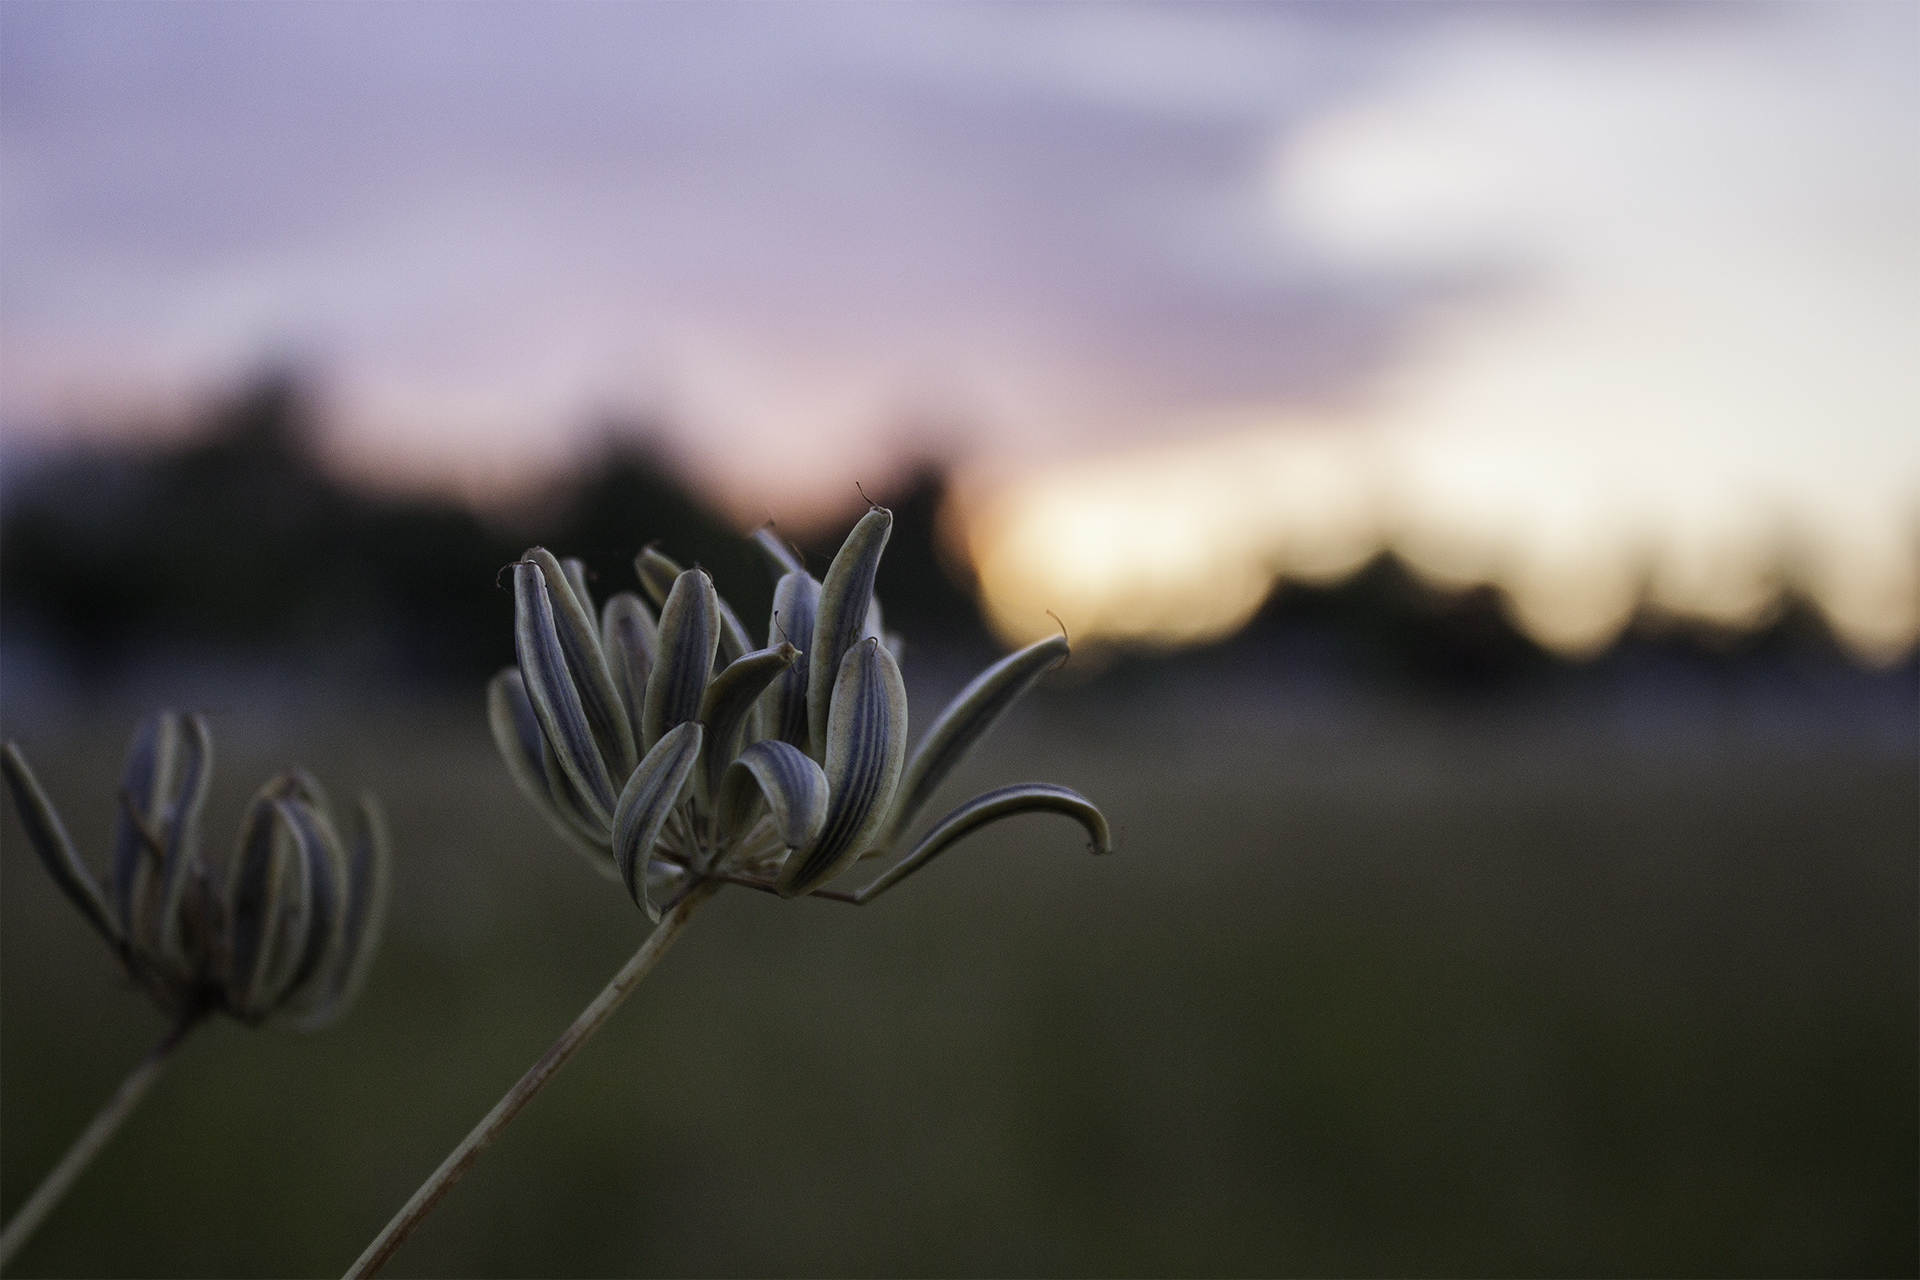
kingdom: Plantae
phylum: Tracheophyta
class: Magnoliopsida
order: Apiales
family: Apiaceae
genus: Lomatium
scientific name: Lomatium nudicaule
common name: Pestle lomatium
